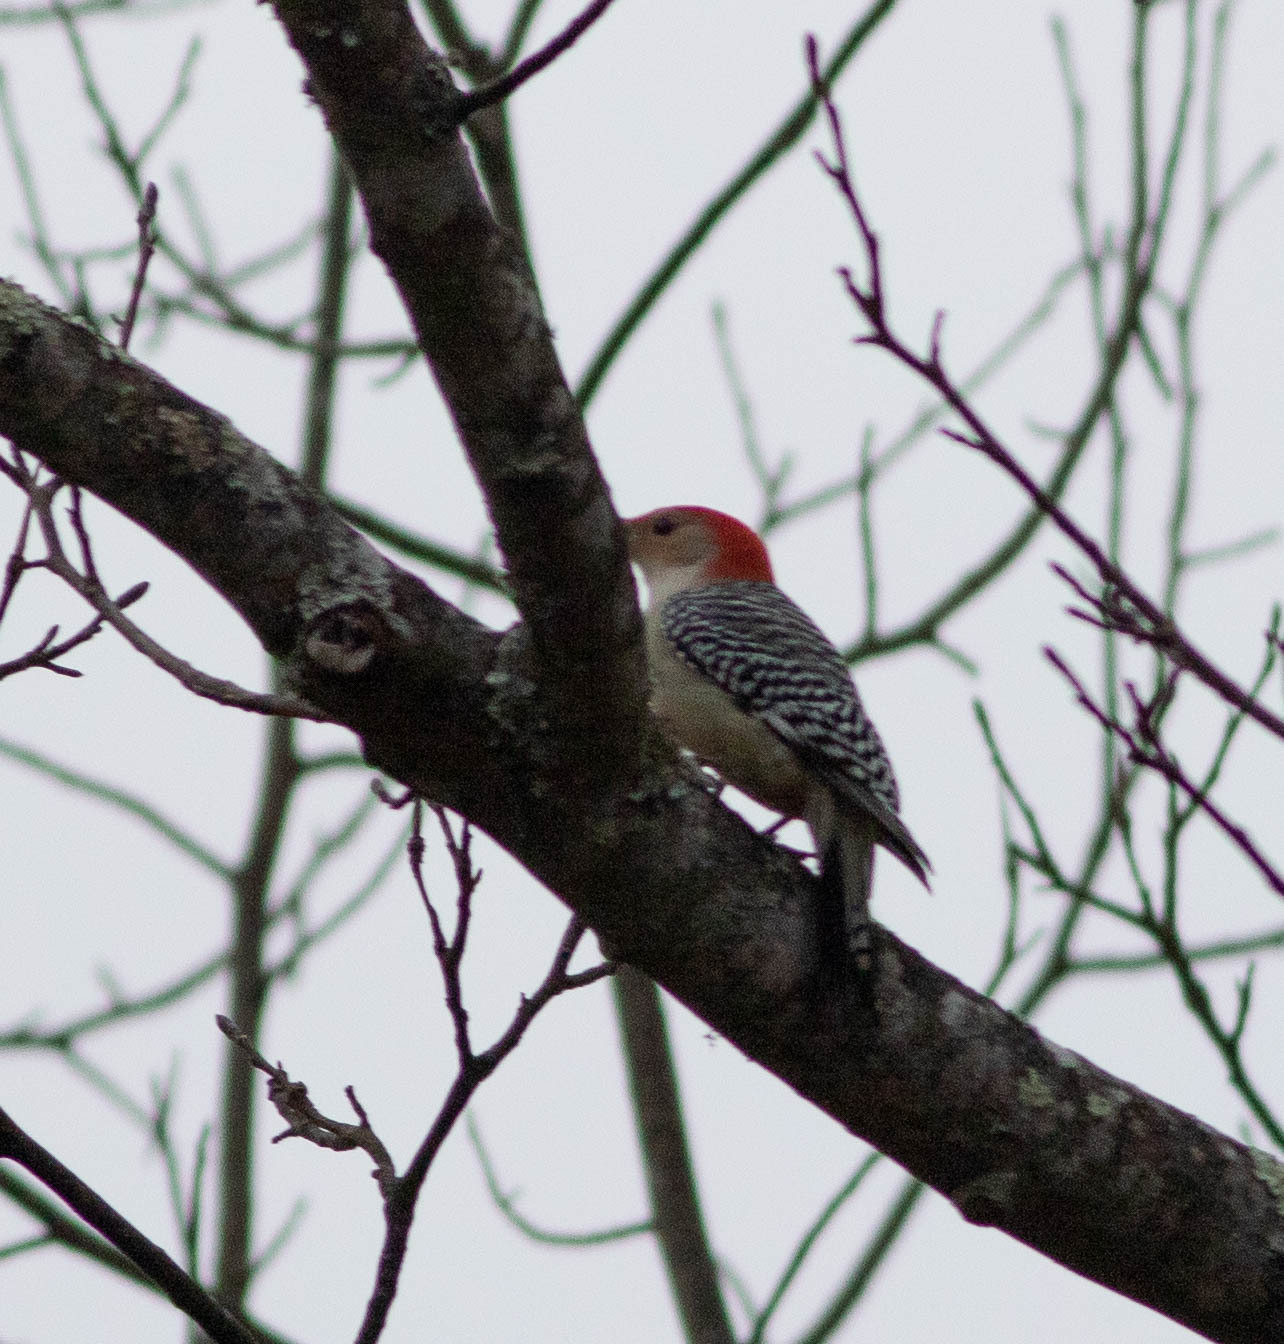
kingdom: Animalia
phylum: Chordata
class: Aves
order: Piciformes
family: Picidae
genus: Melanerpes
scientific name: Melanerpes carolinus
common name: Red-bellied woodpecker
